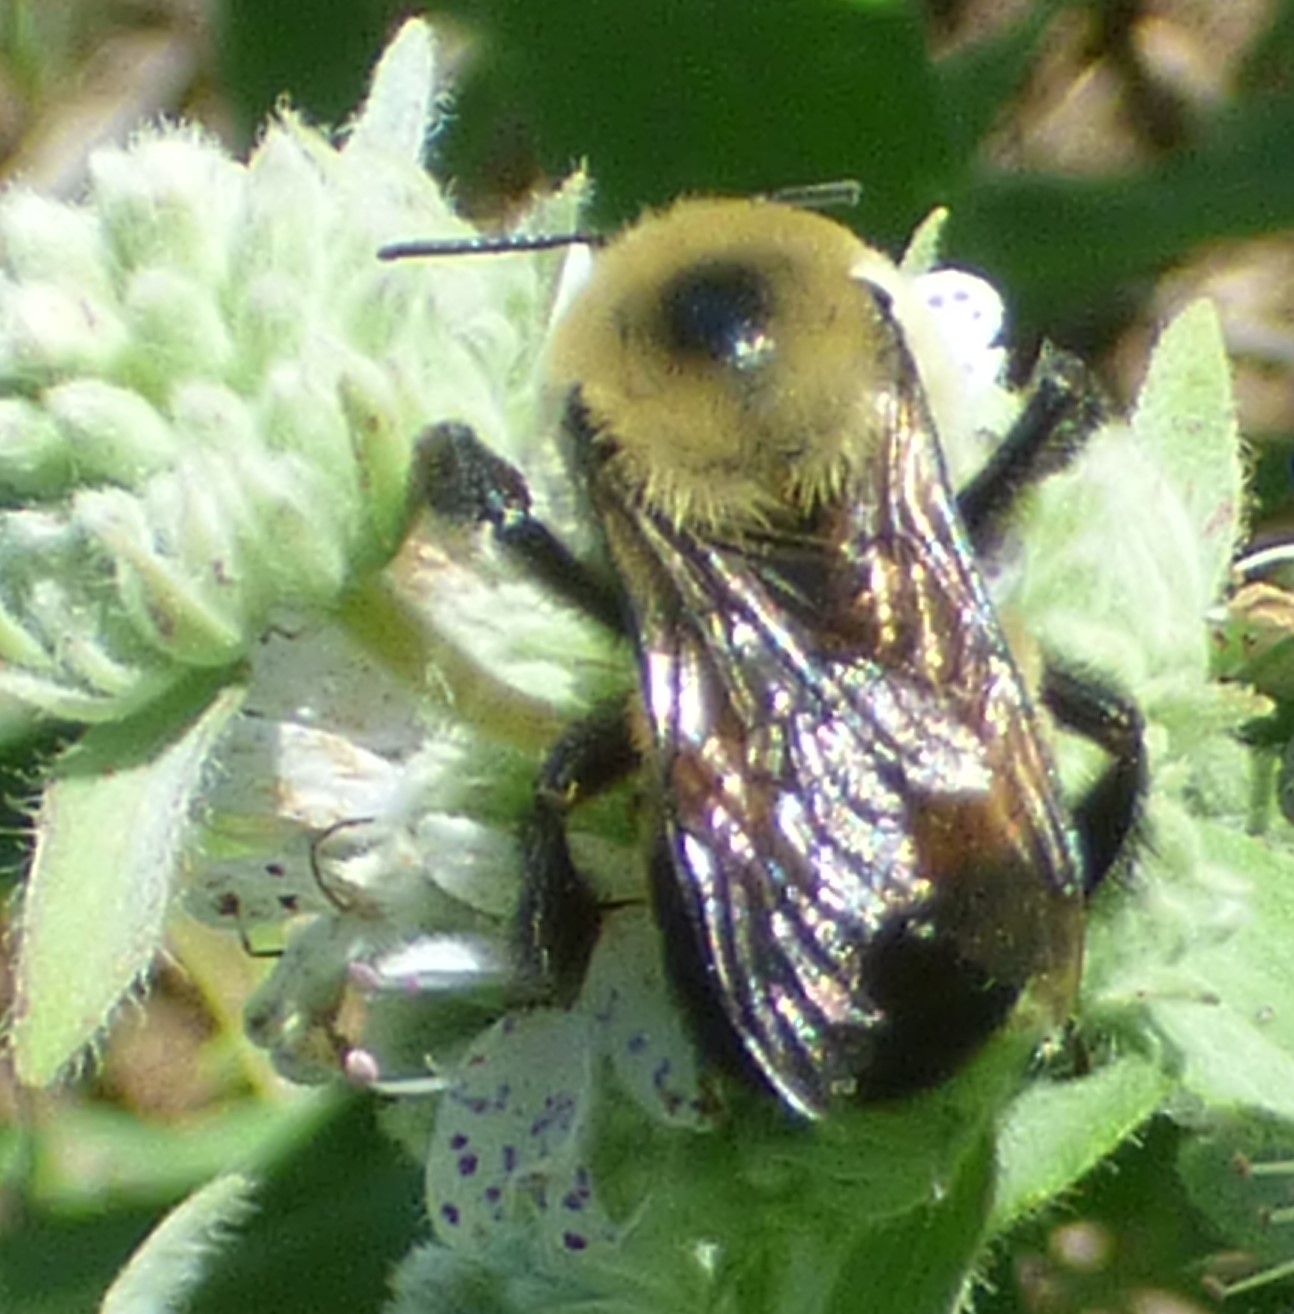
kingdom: Animalia
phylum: Arthropoda
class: Insecta
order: Hymenoptera
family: Apidae
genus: Bombus
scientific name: Bombus griseocollis
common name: Brown-belted bumble bee
